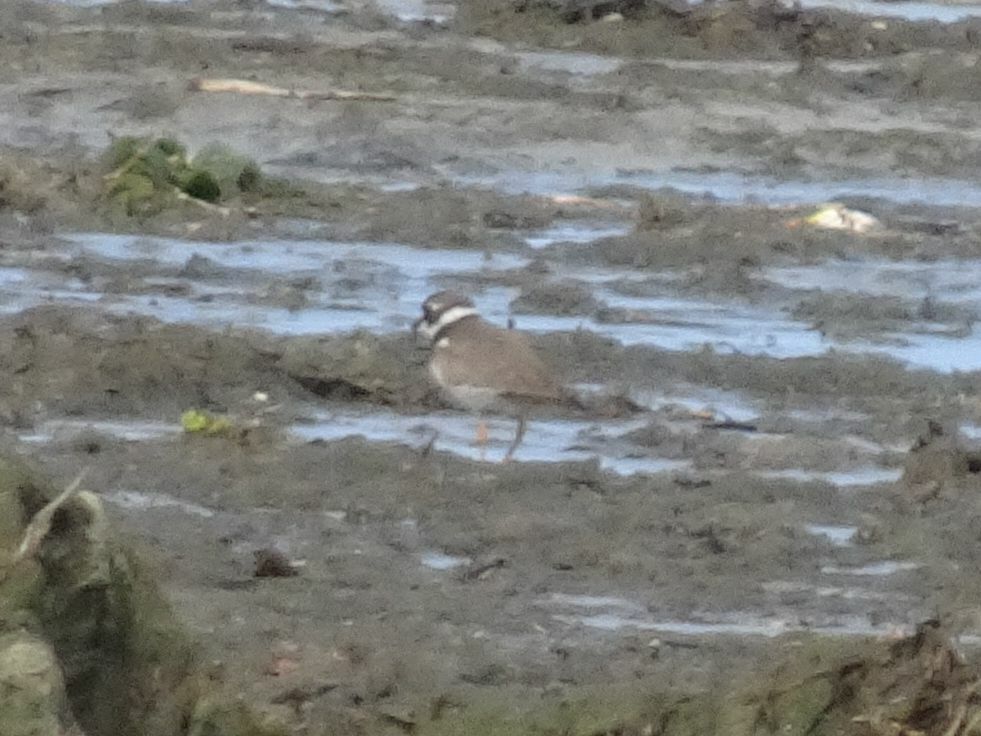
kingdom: Animalia
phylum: Chordata
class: Aves
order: Charadriiformes
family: Charadriidae
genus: Charadrius
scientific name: Charadrius hiaticula
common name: Common ringed plover
